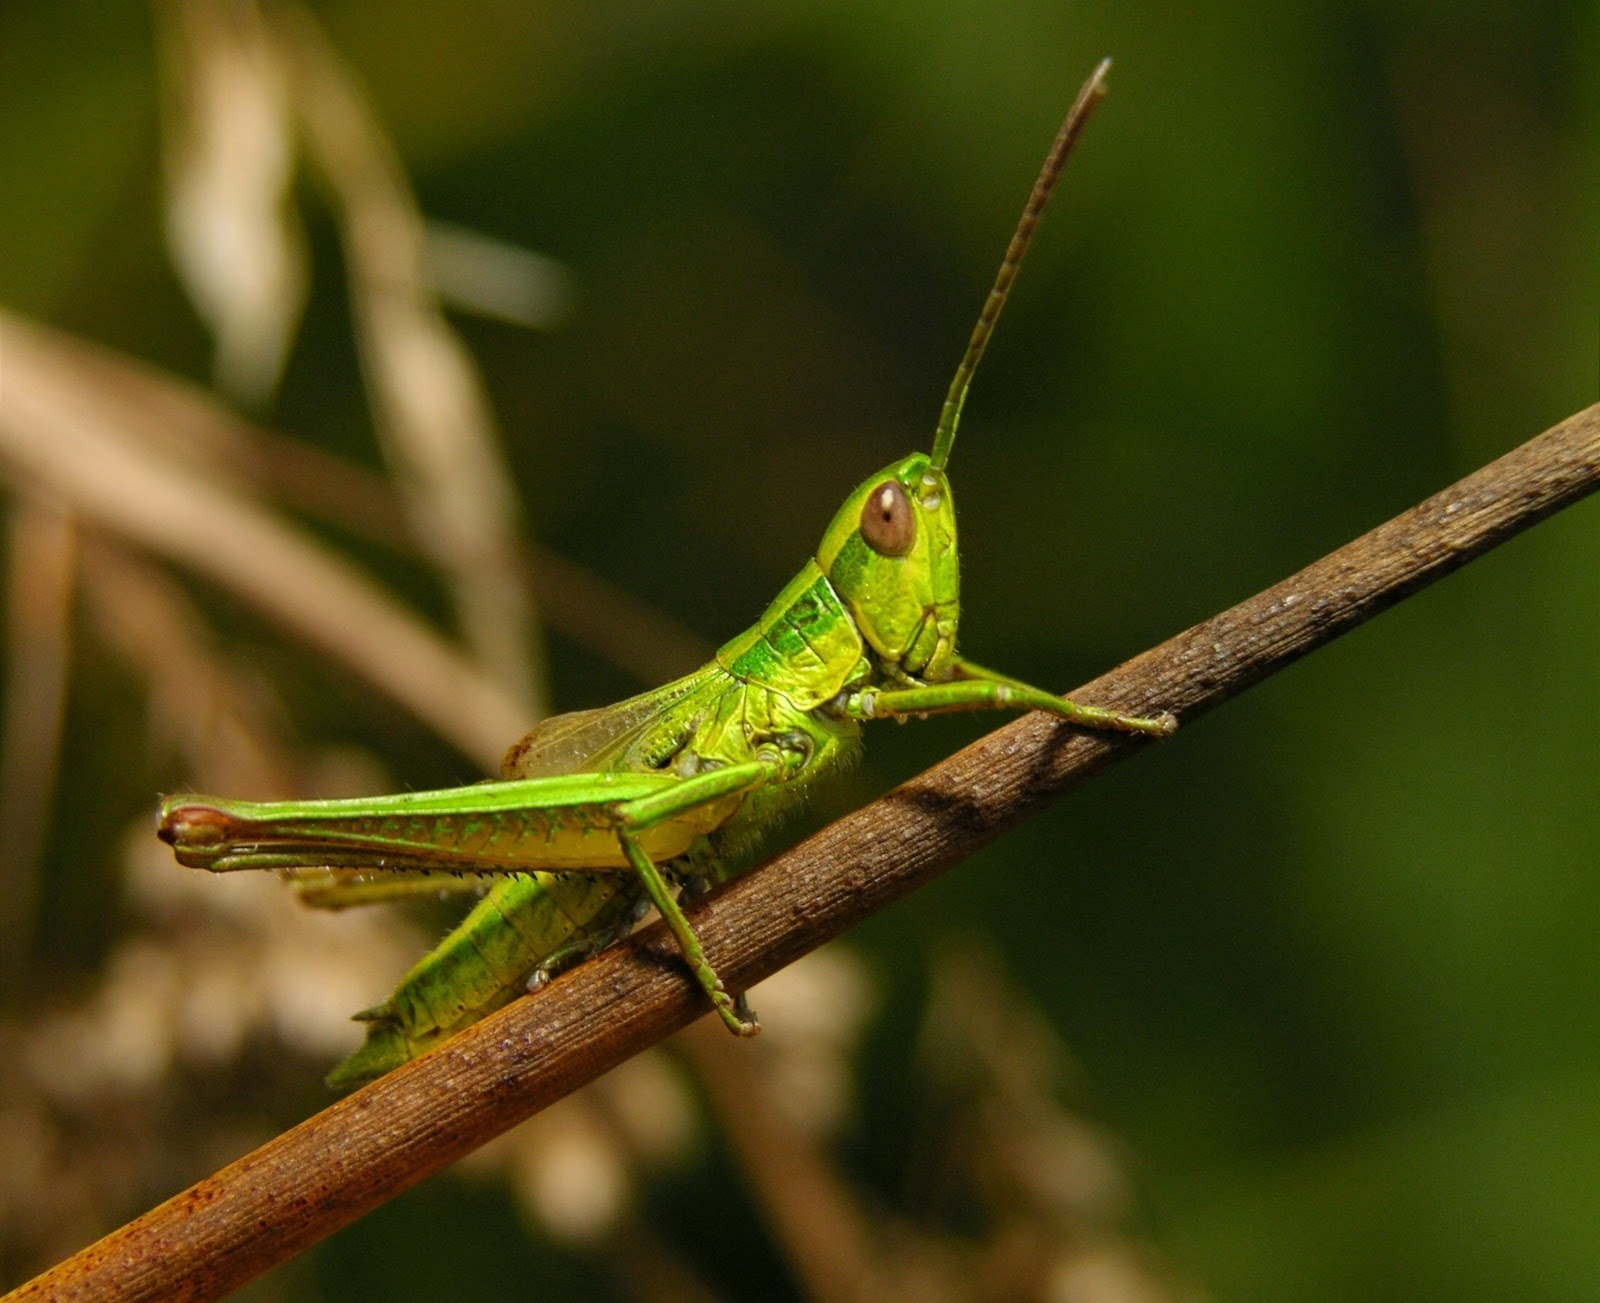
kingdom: Animalia
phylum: Arthropoda
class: Insecta
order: Orthoptera
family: Acrididae
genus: Euthystira
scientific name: Euthystira brachyptera
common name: Small gold grasshopper
